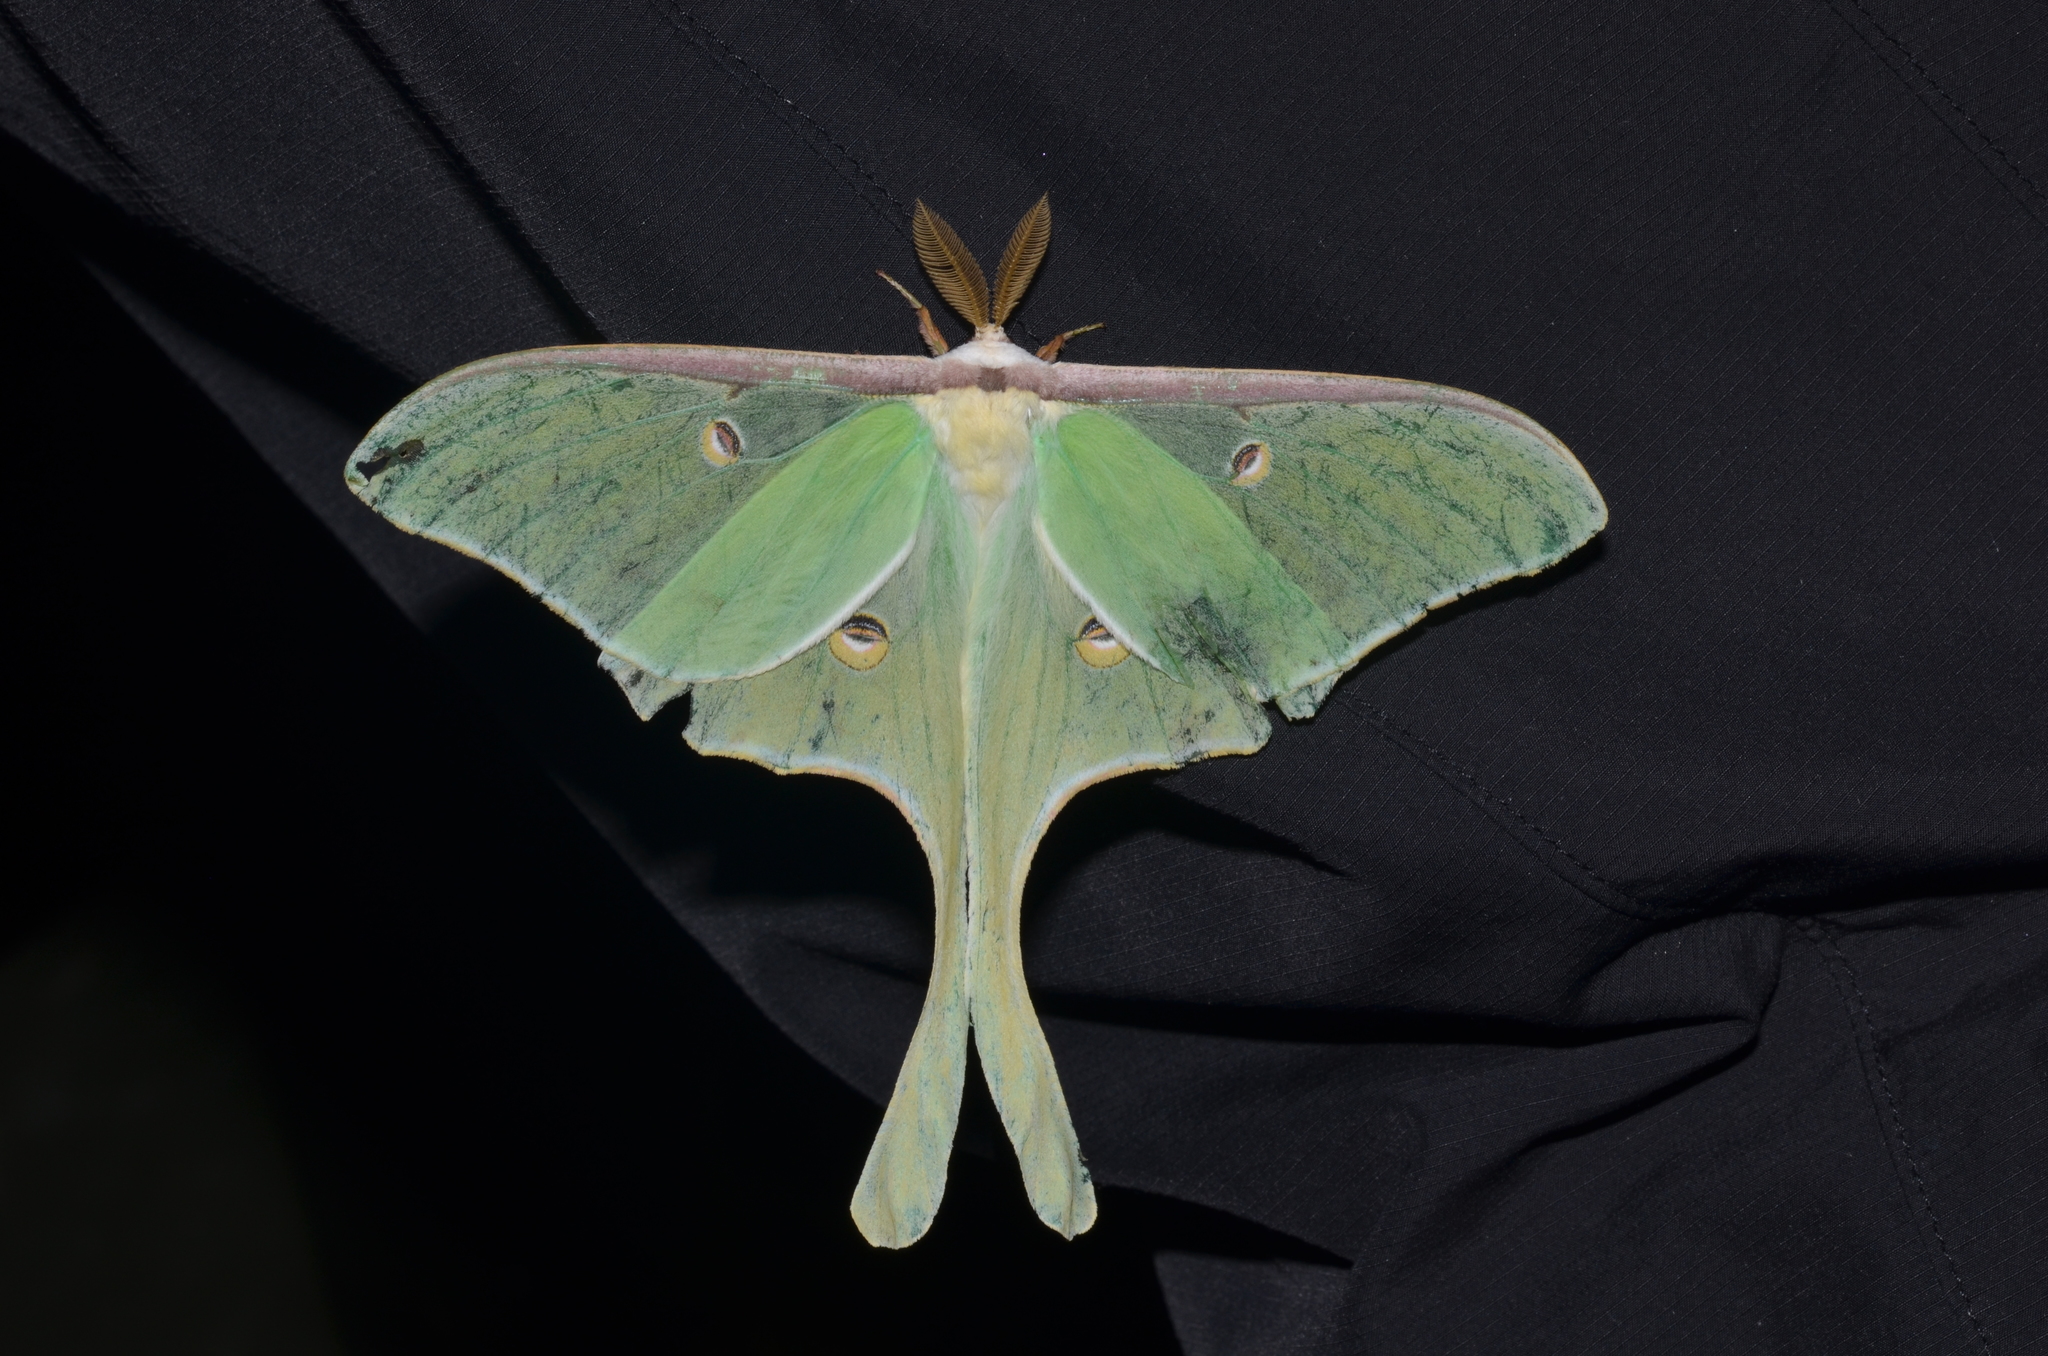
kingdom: Animalia
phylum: Arthropoda
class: Insecta
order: Lepidoptera
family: Saturniidae
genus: Actias
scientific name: Actias luna
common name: Luna moth
